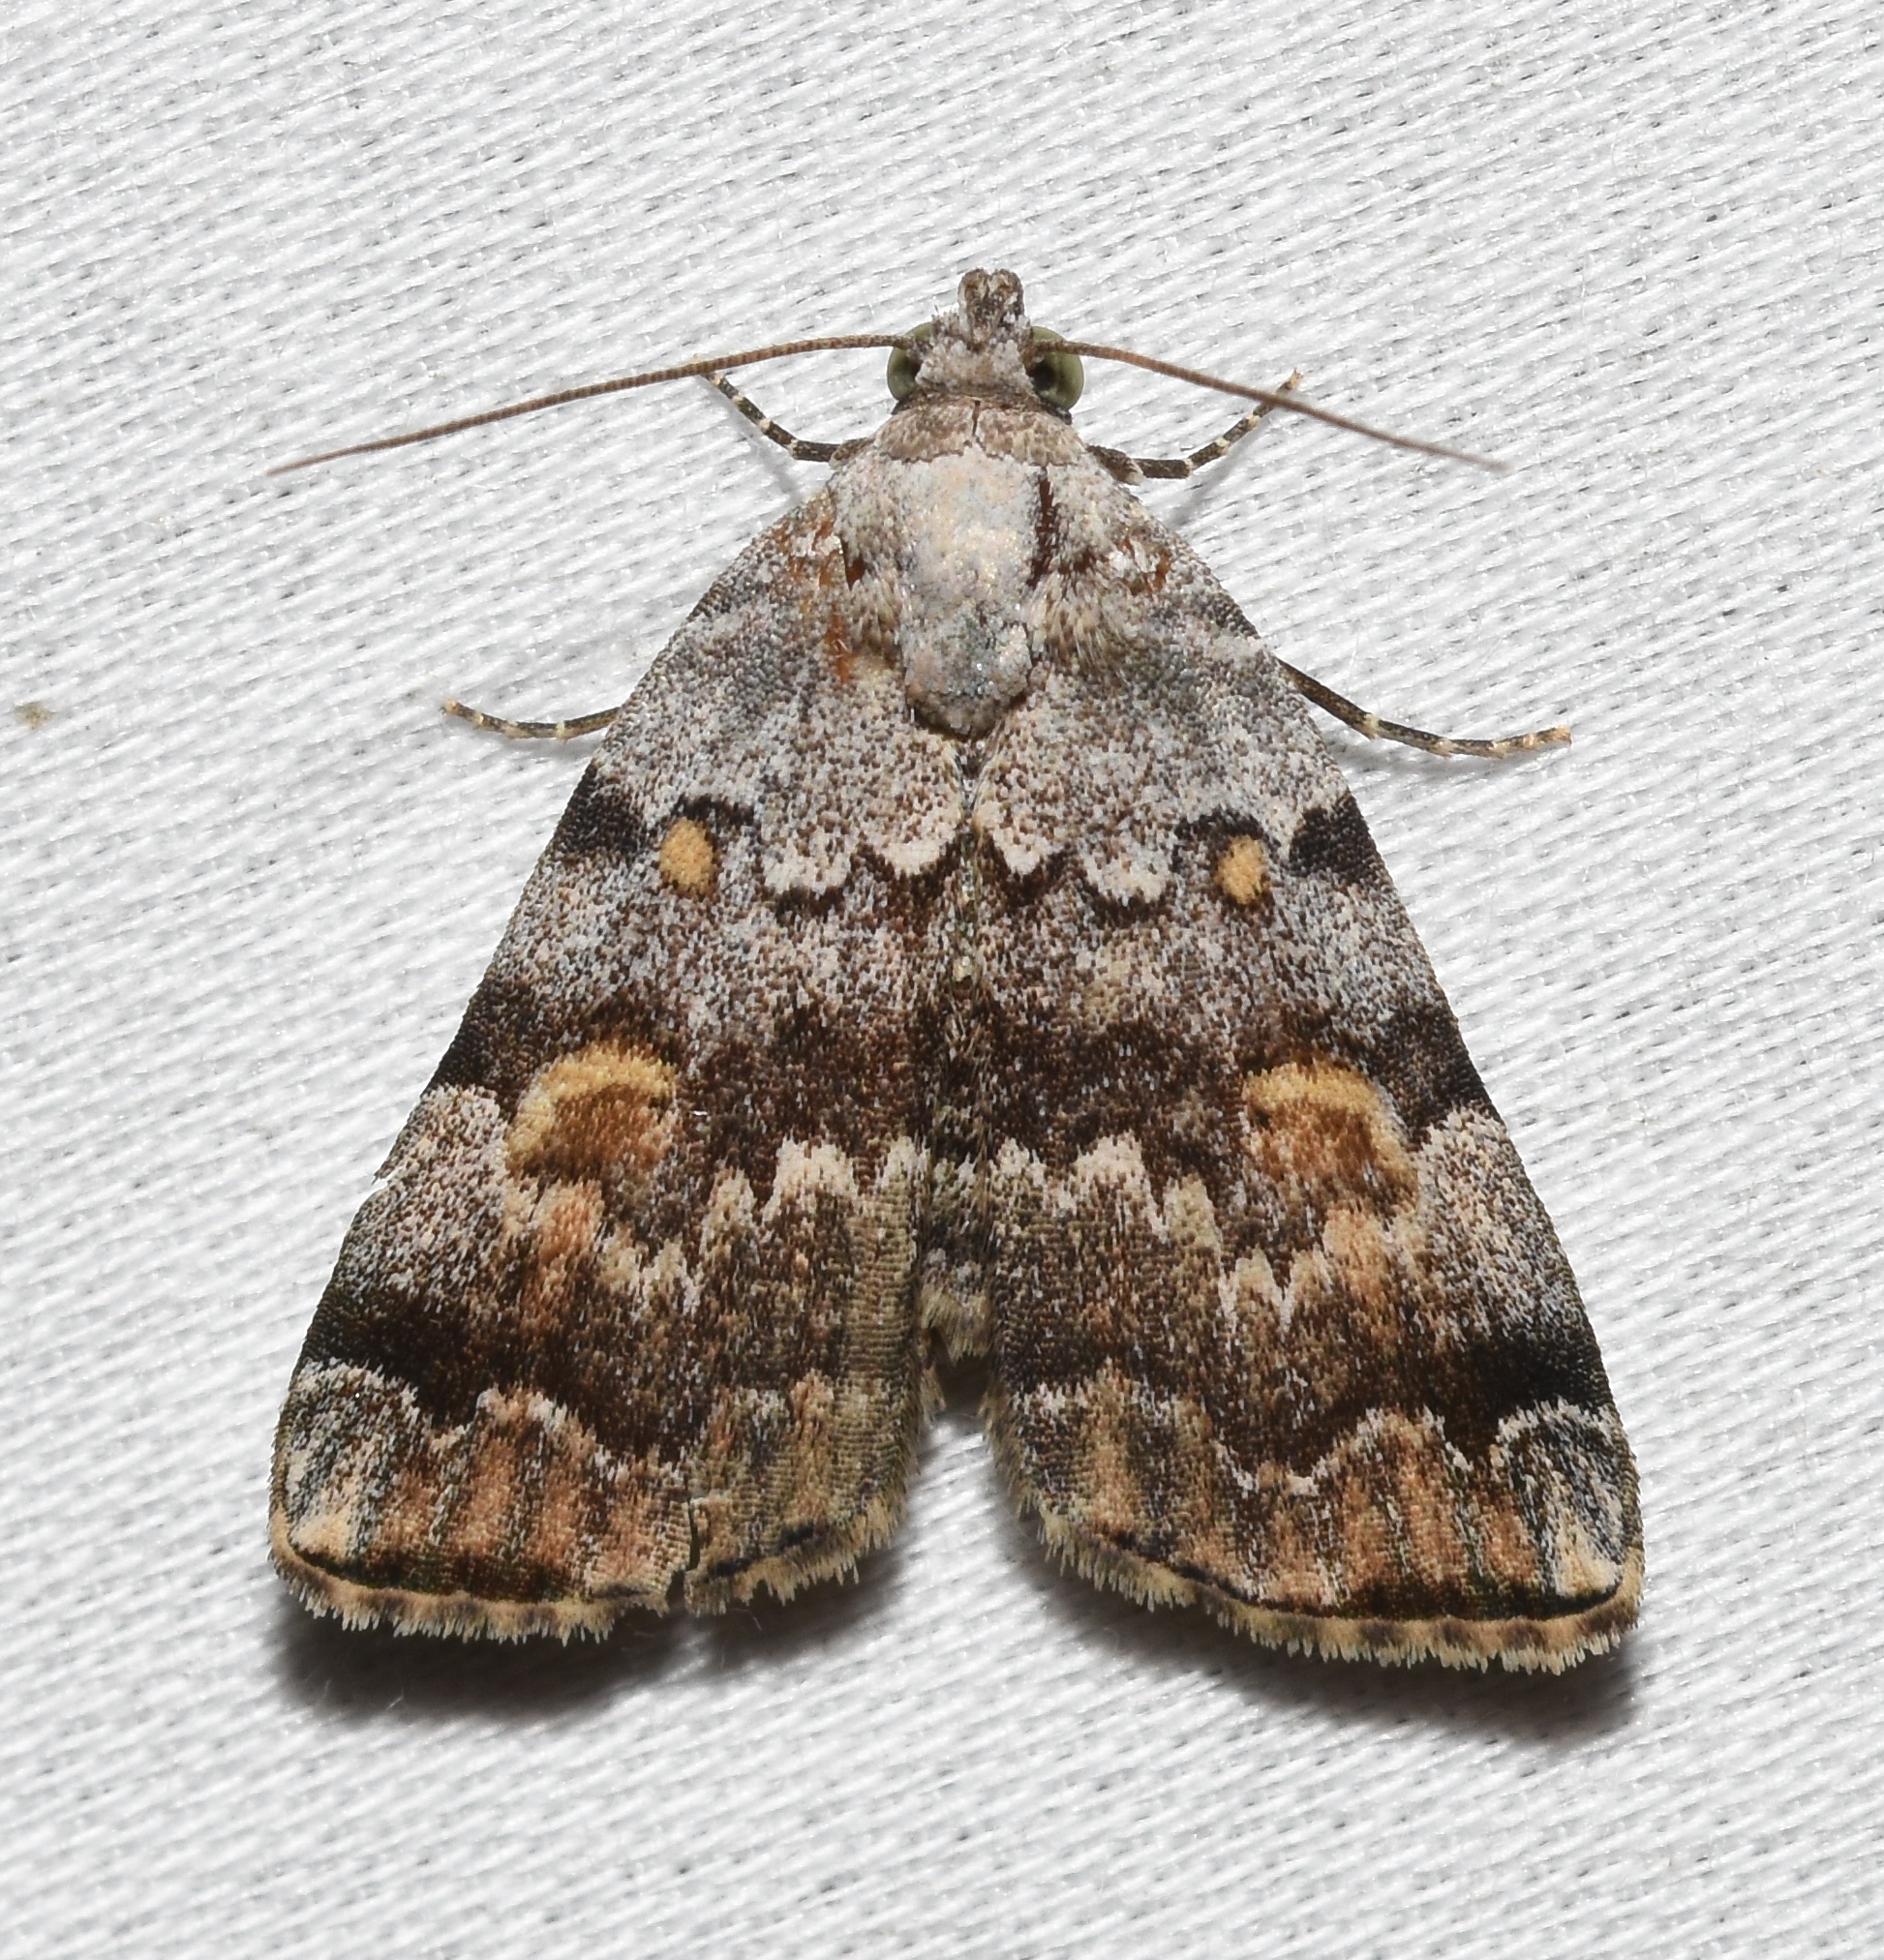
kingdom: Animalia
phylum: Arthropoda
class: Insecta
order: Lepidoptera
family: Erebidae
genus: Idia
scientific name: Idia americalis
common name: American idia moth
